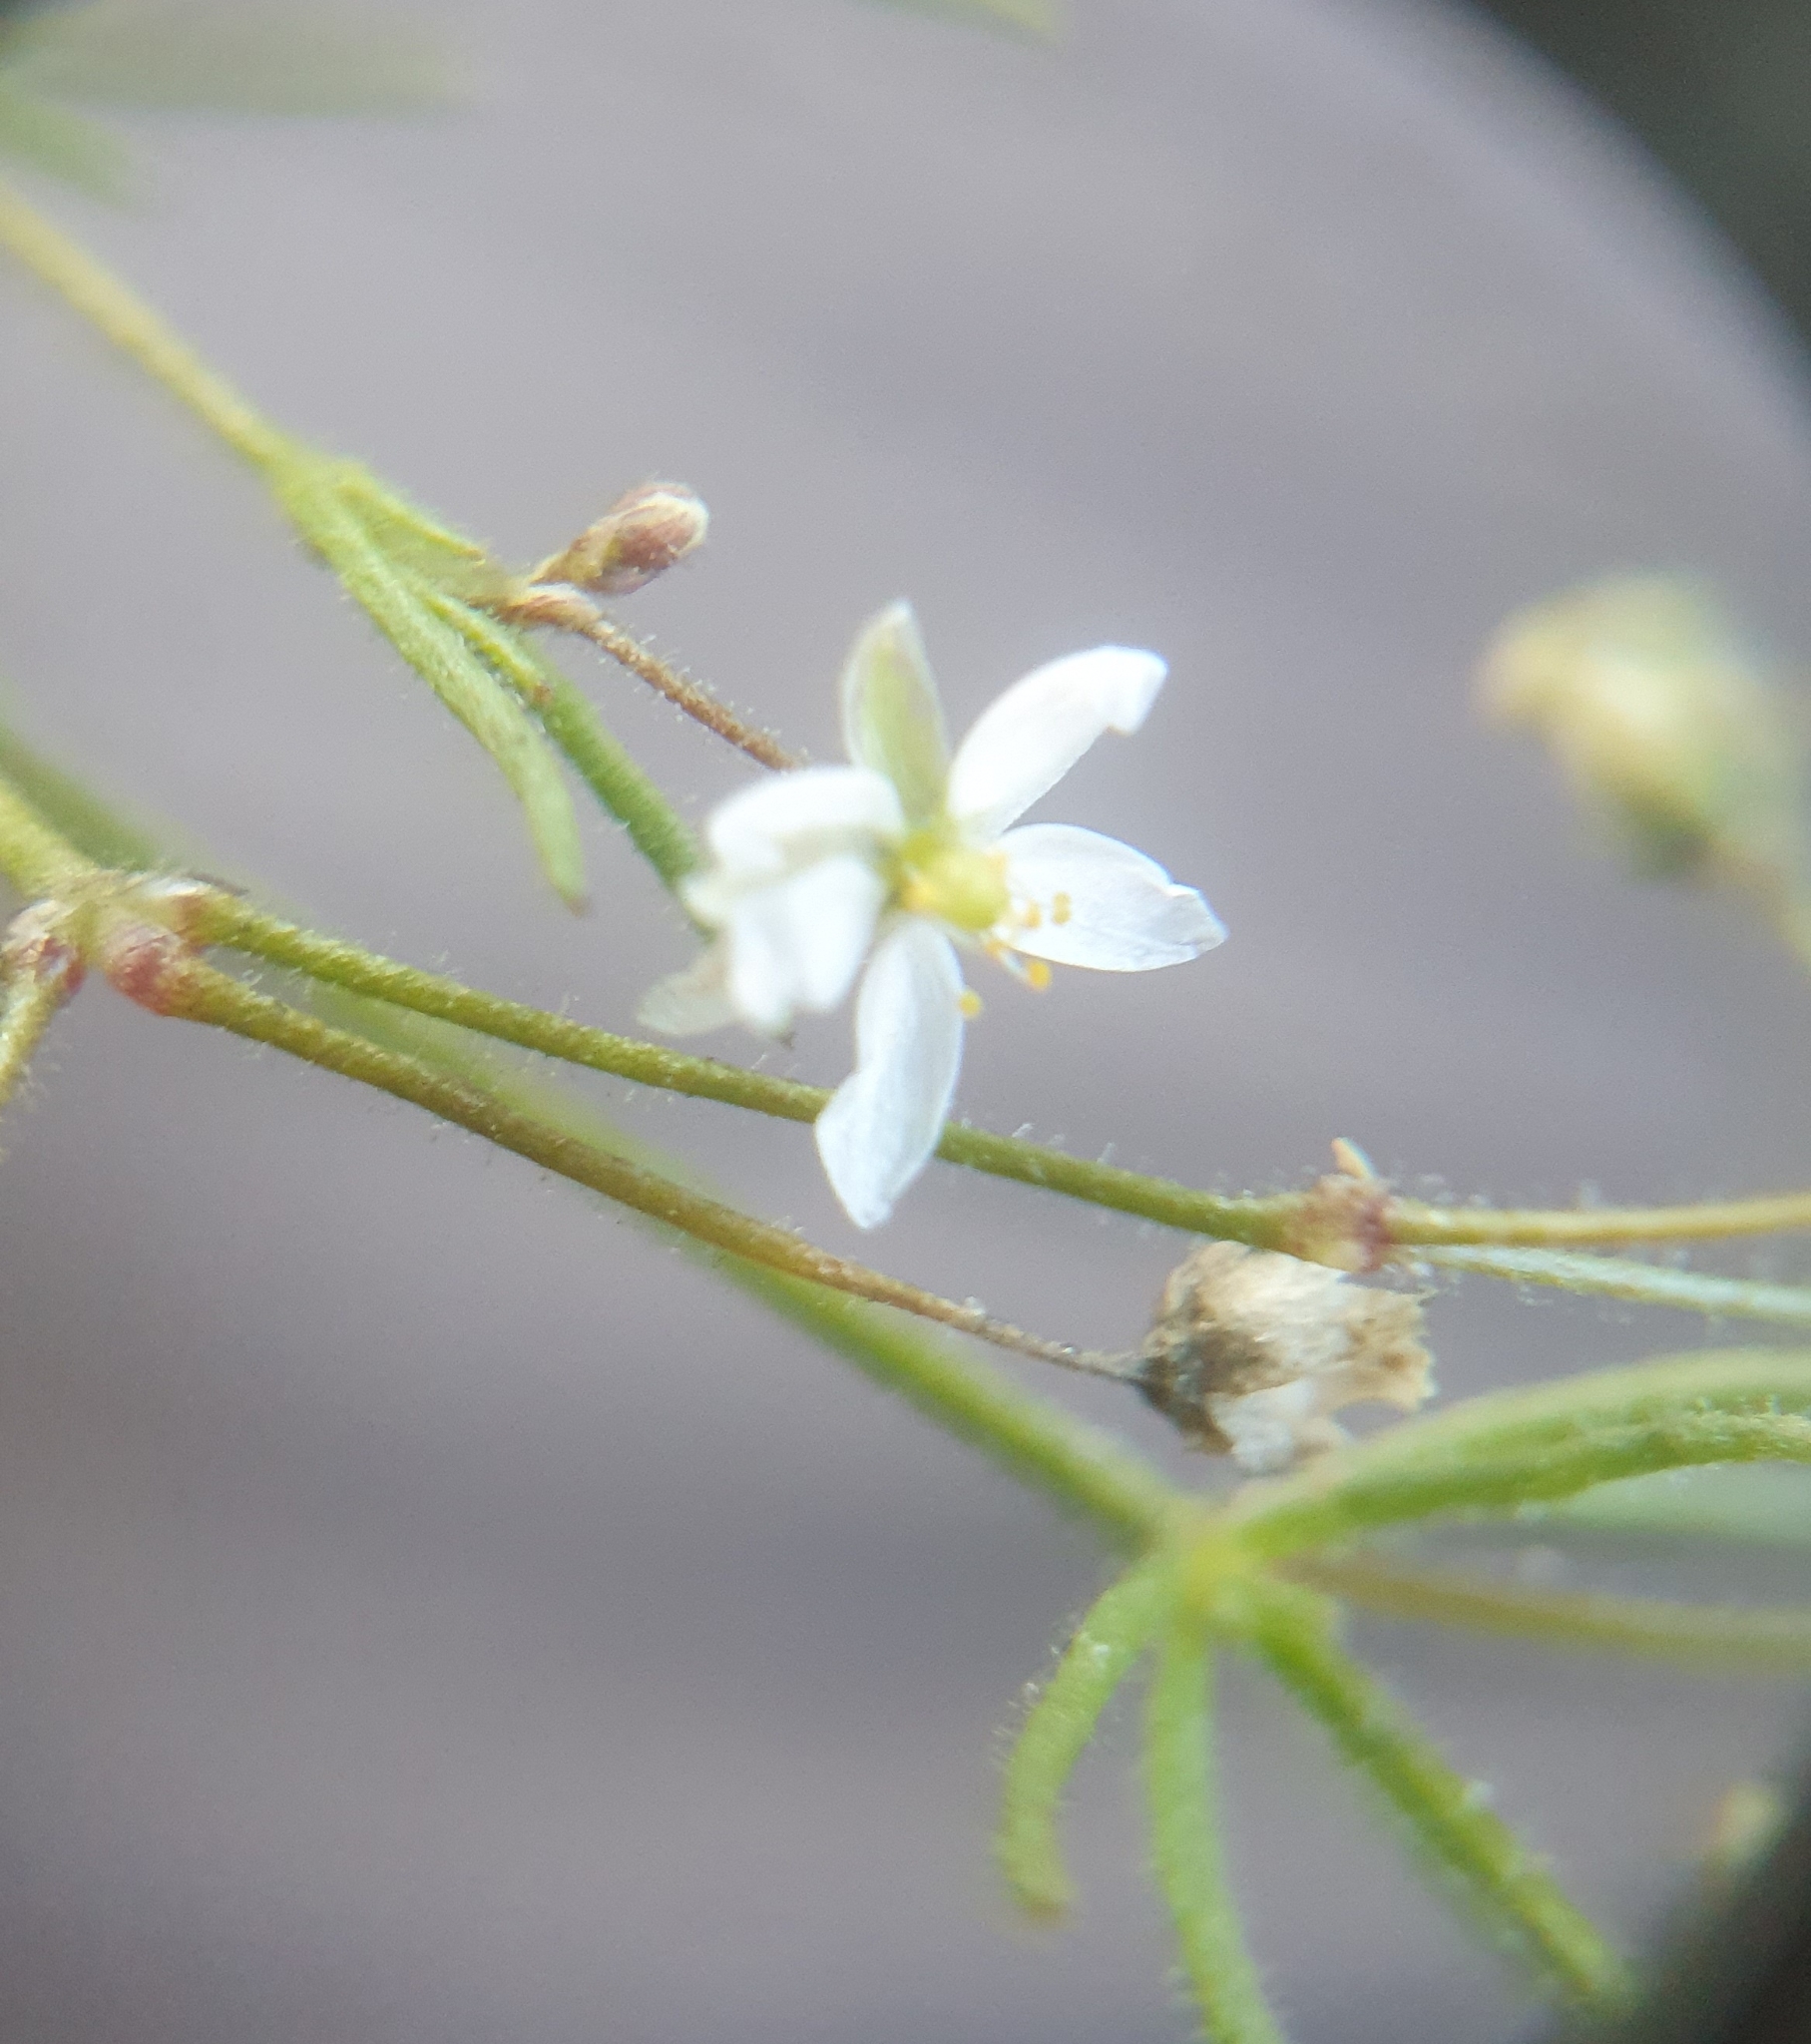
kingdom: Plantae
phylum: Tracheophyta
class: Magnoliopsida
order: Caryophyllales
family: Caryophyllaceae
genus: Spergula
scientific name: Spergula arvensis
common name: Corn spurrey
